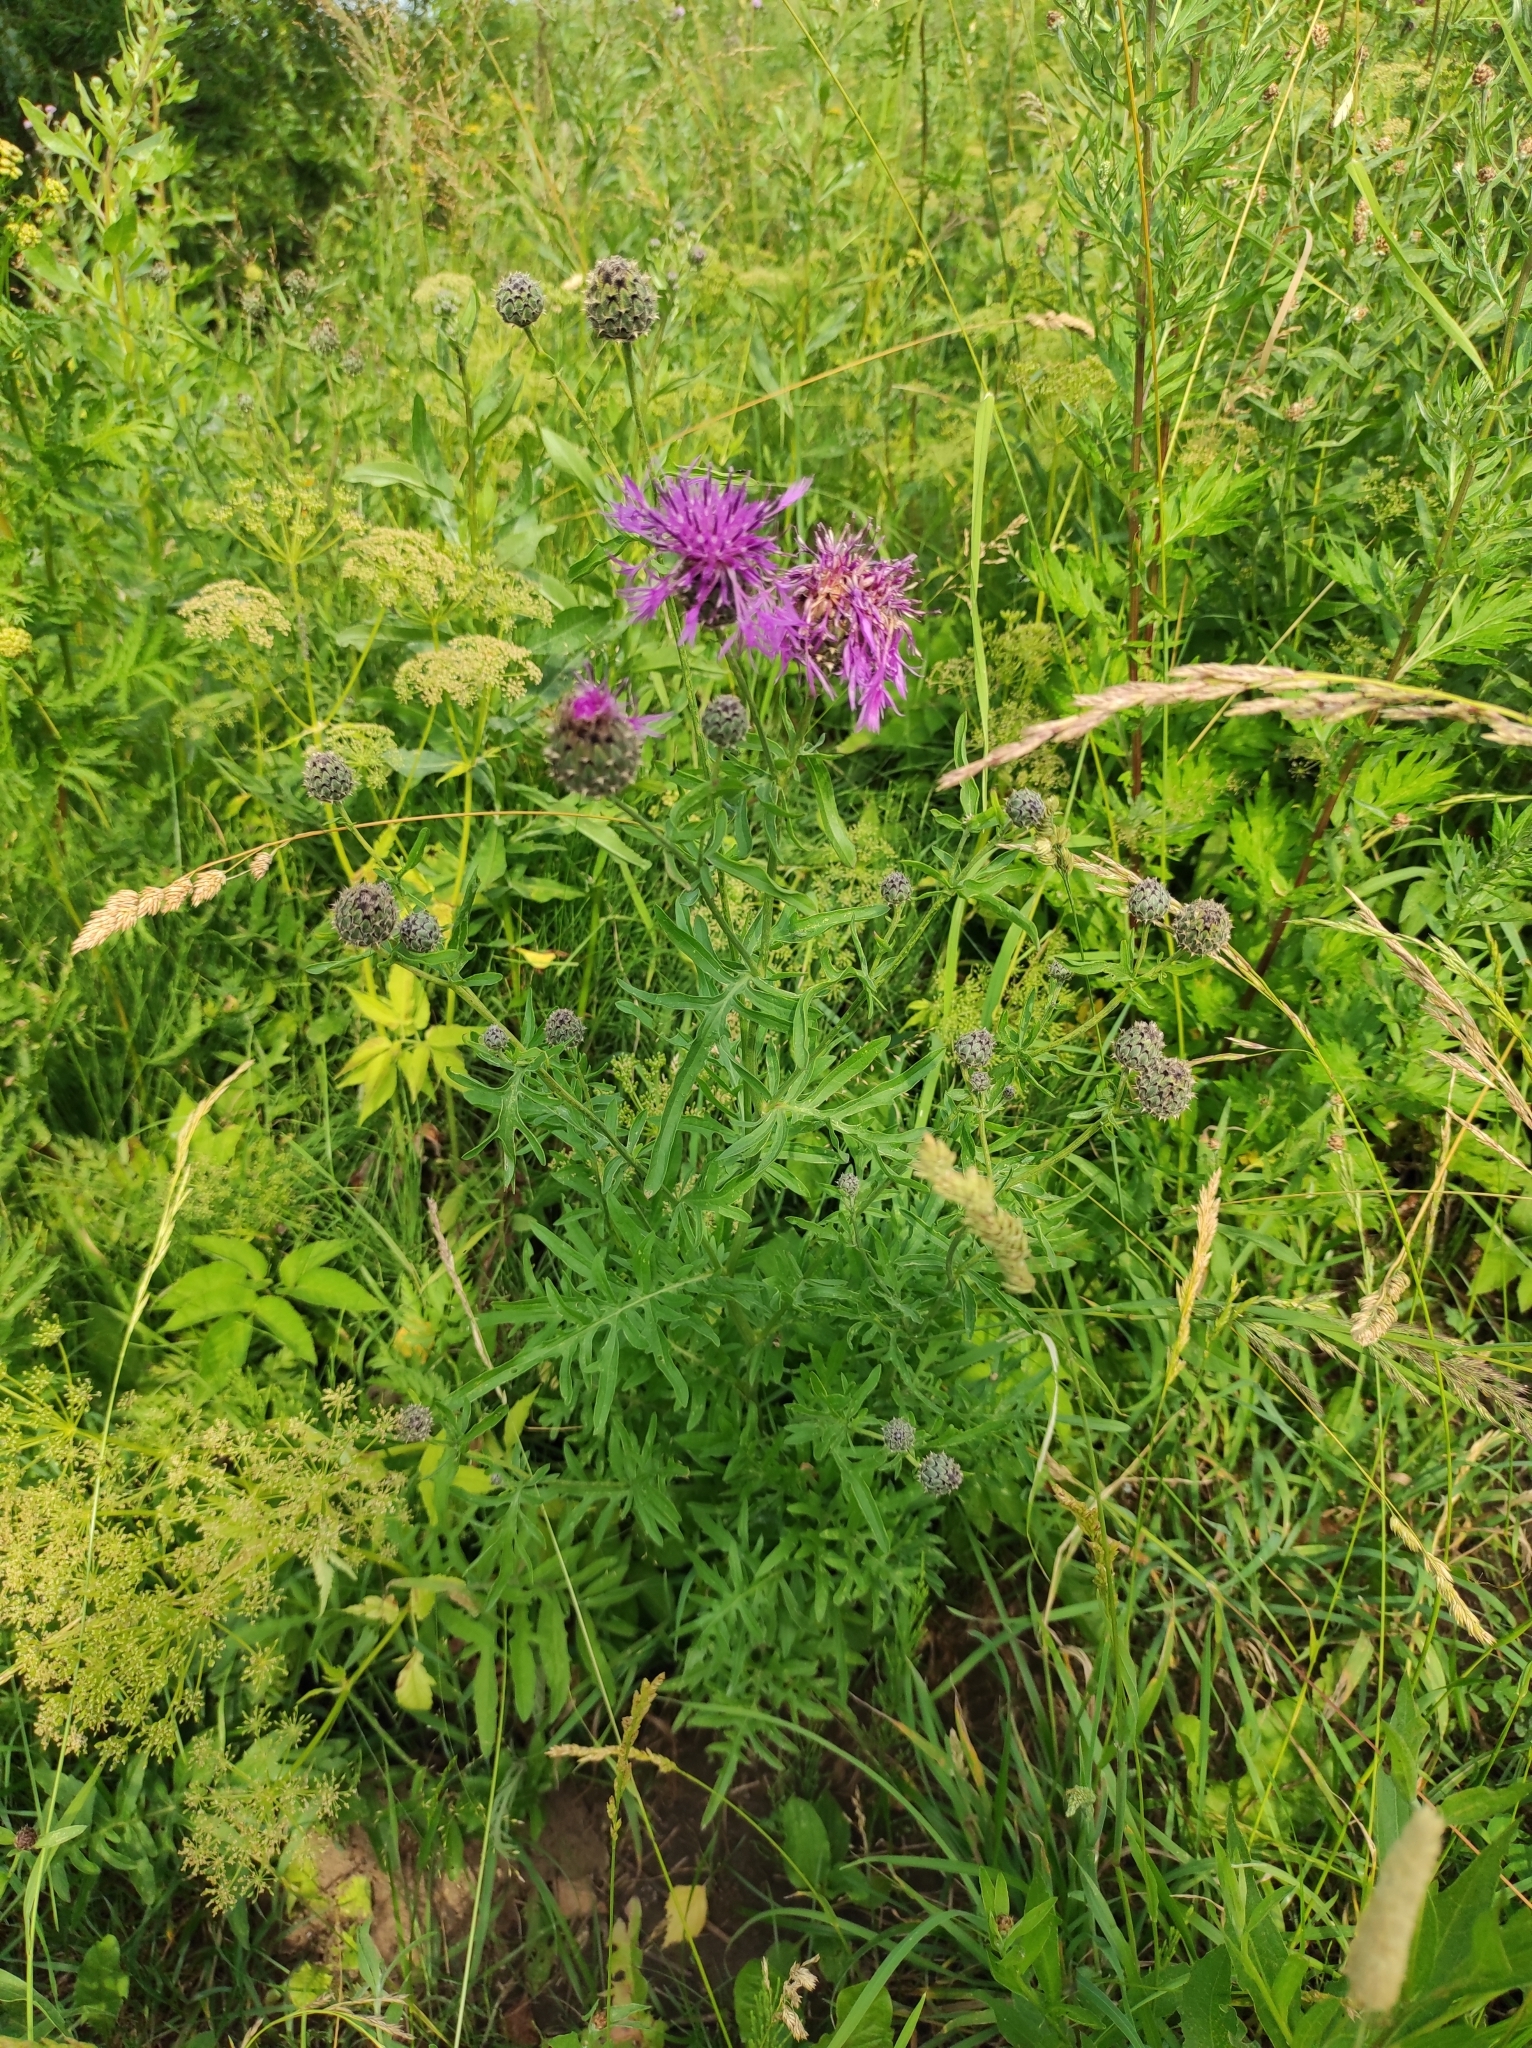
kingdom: Plantae
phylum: Tracheophyta
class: Magnoliopsida
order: Asterales
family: Asteraceae
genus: Centaurea
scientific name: Centaurea scabiosa
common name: Greater knapweed
